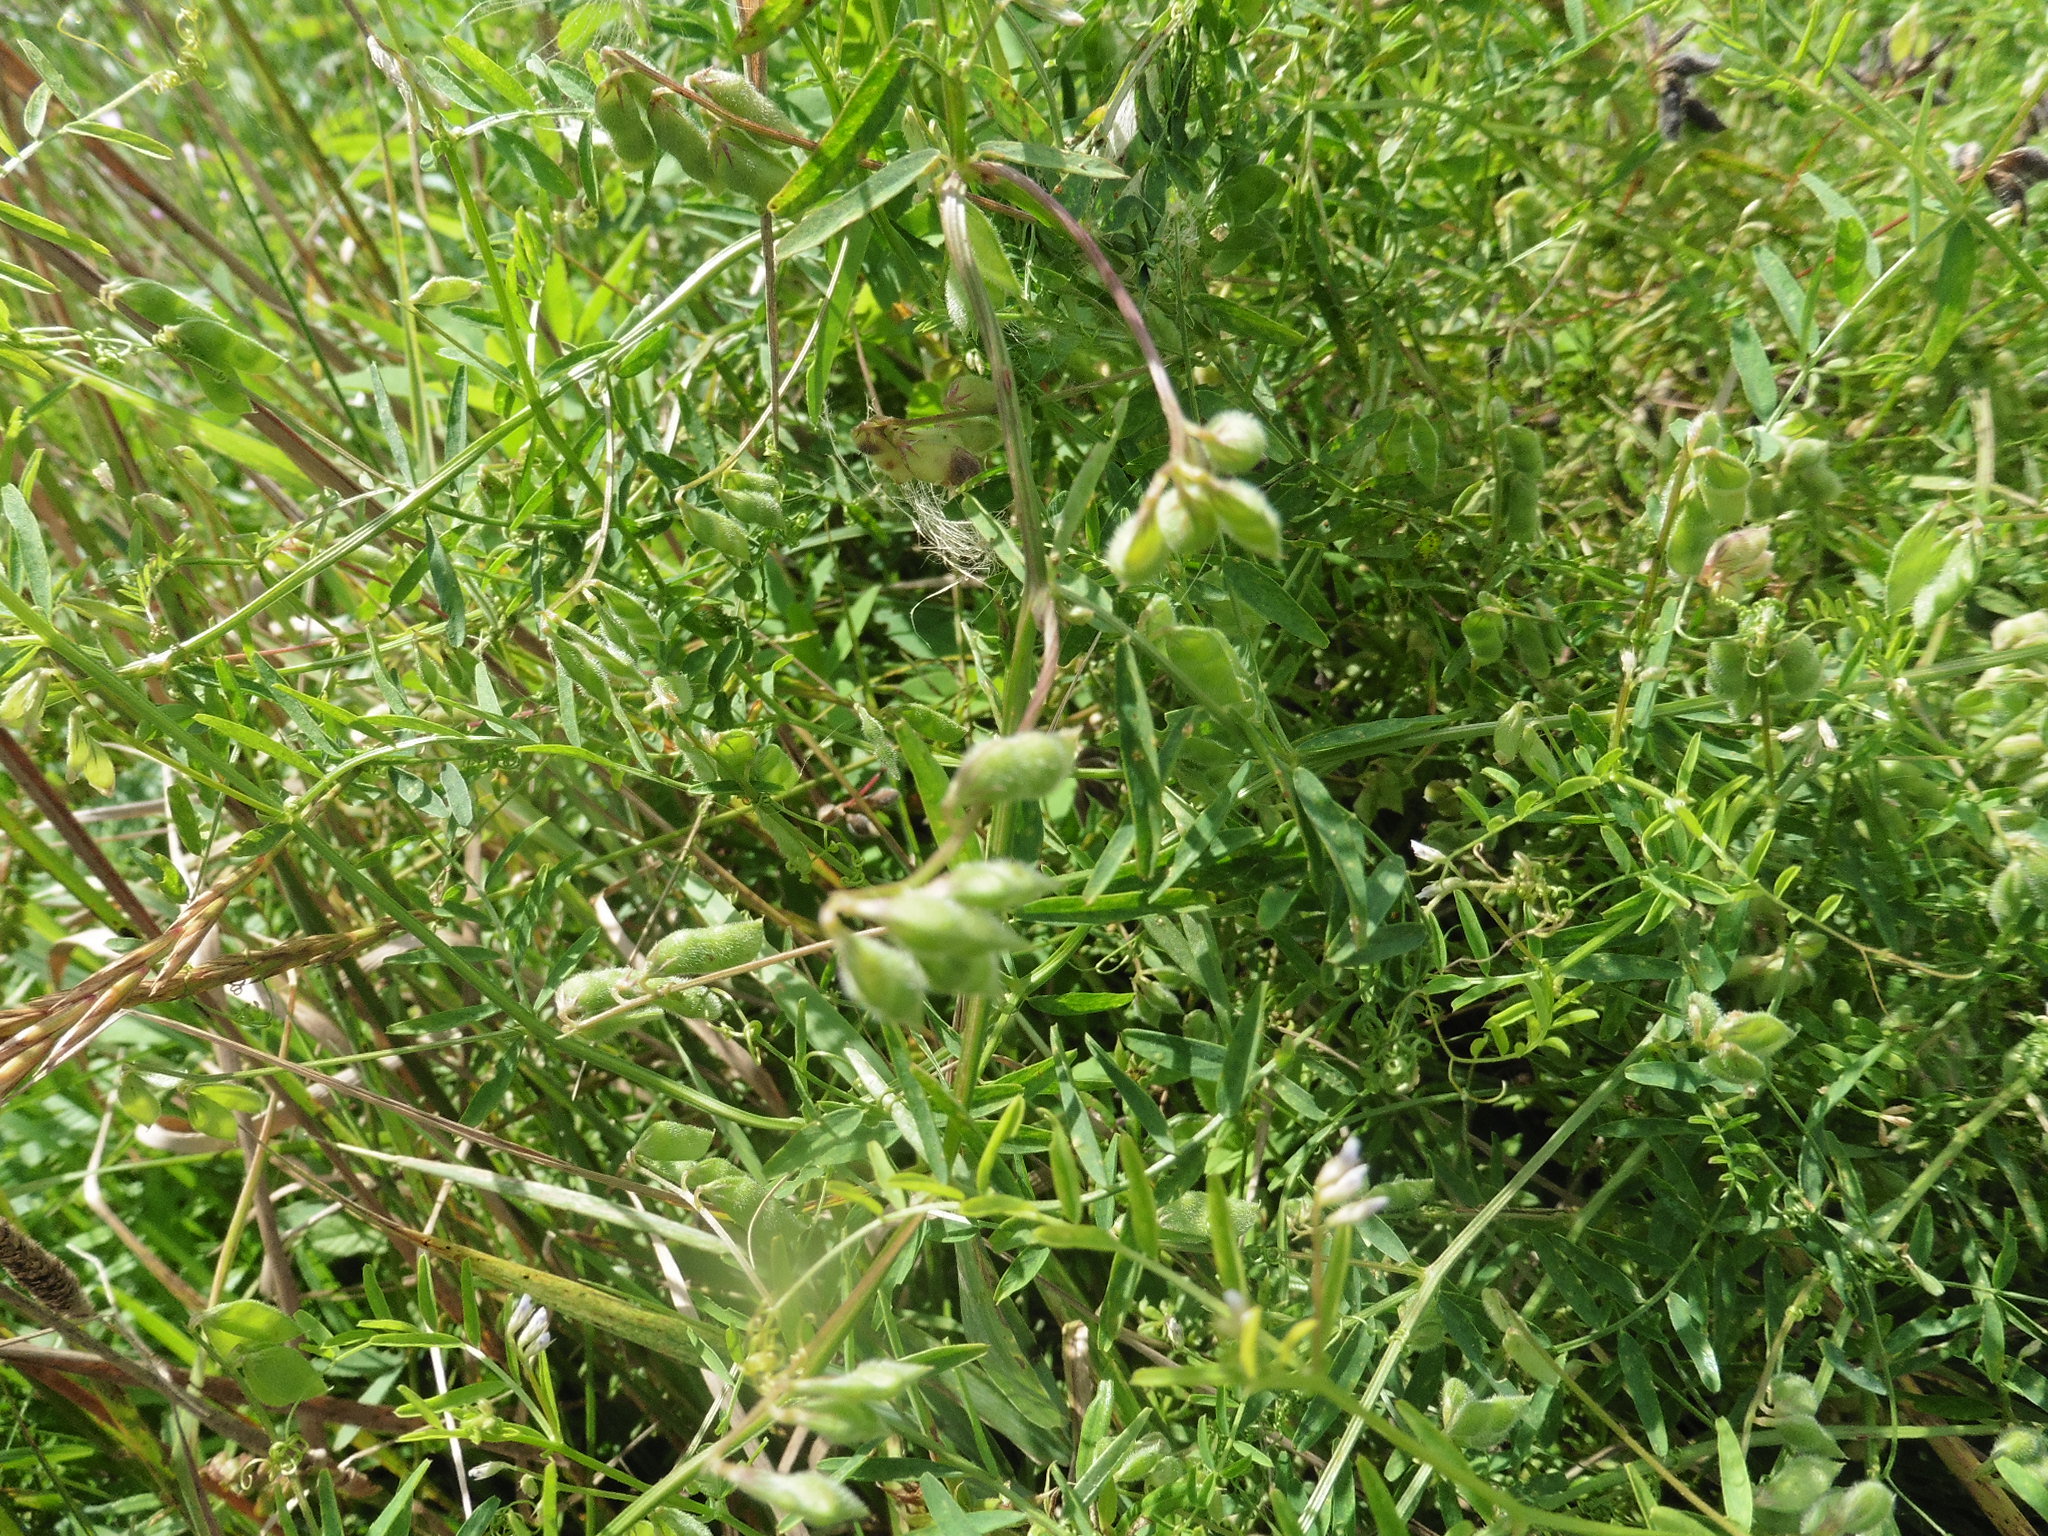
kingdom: Plantae
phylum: Tracheophyta
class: Magnoliopsida
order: Fabales
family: Fabaceae
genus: Vicia
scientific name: Vicia hirsuta
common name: Tiny vetch
